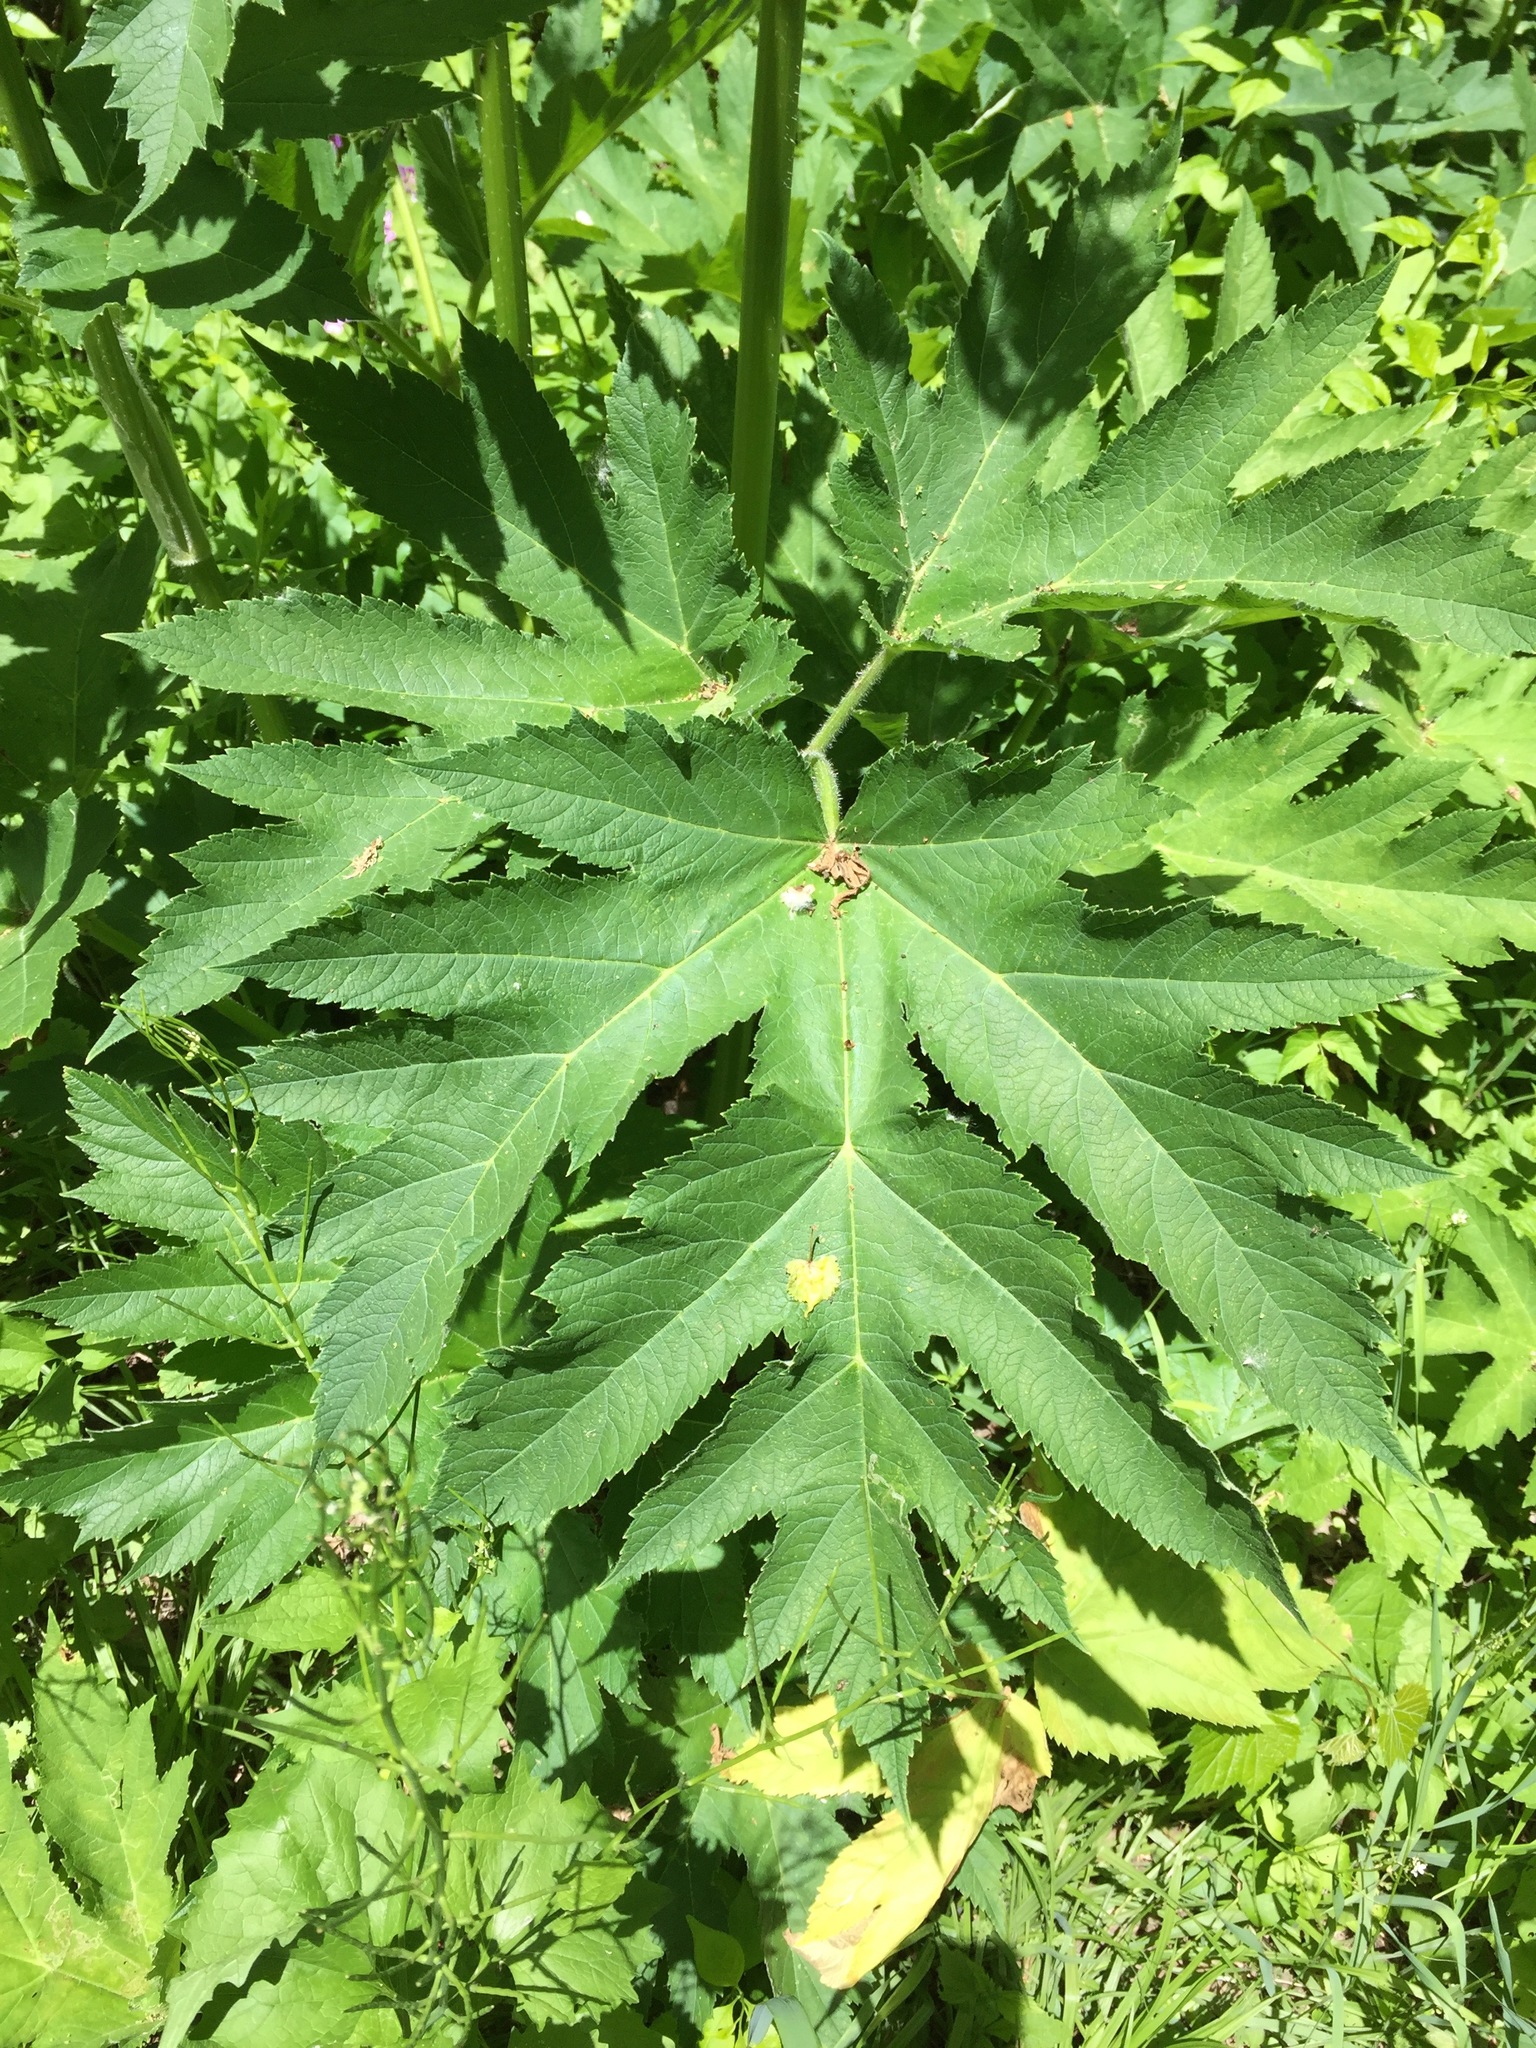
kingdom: Plantae
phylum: Tracheophyta
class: Magnoliopsida
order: Apiales
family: Apiaceae
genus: Heracleum
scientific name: Heracleum maximum
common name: American cow parsnip
